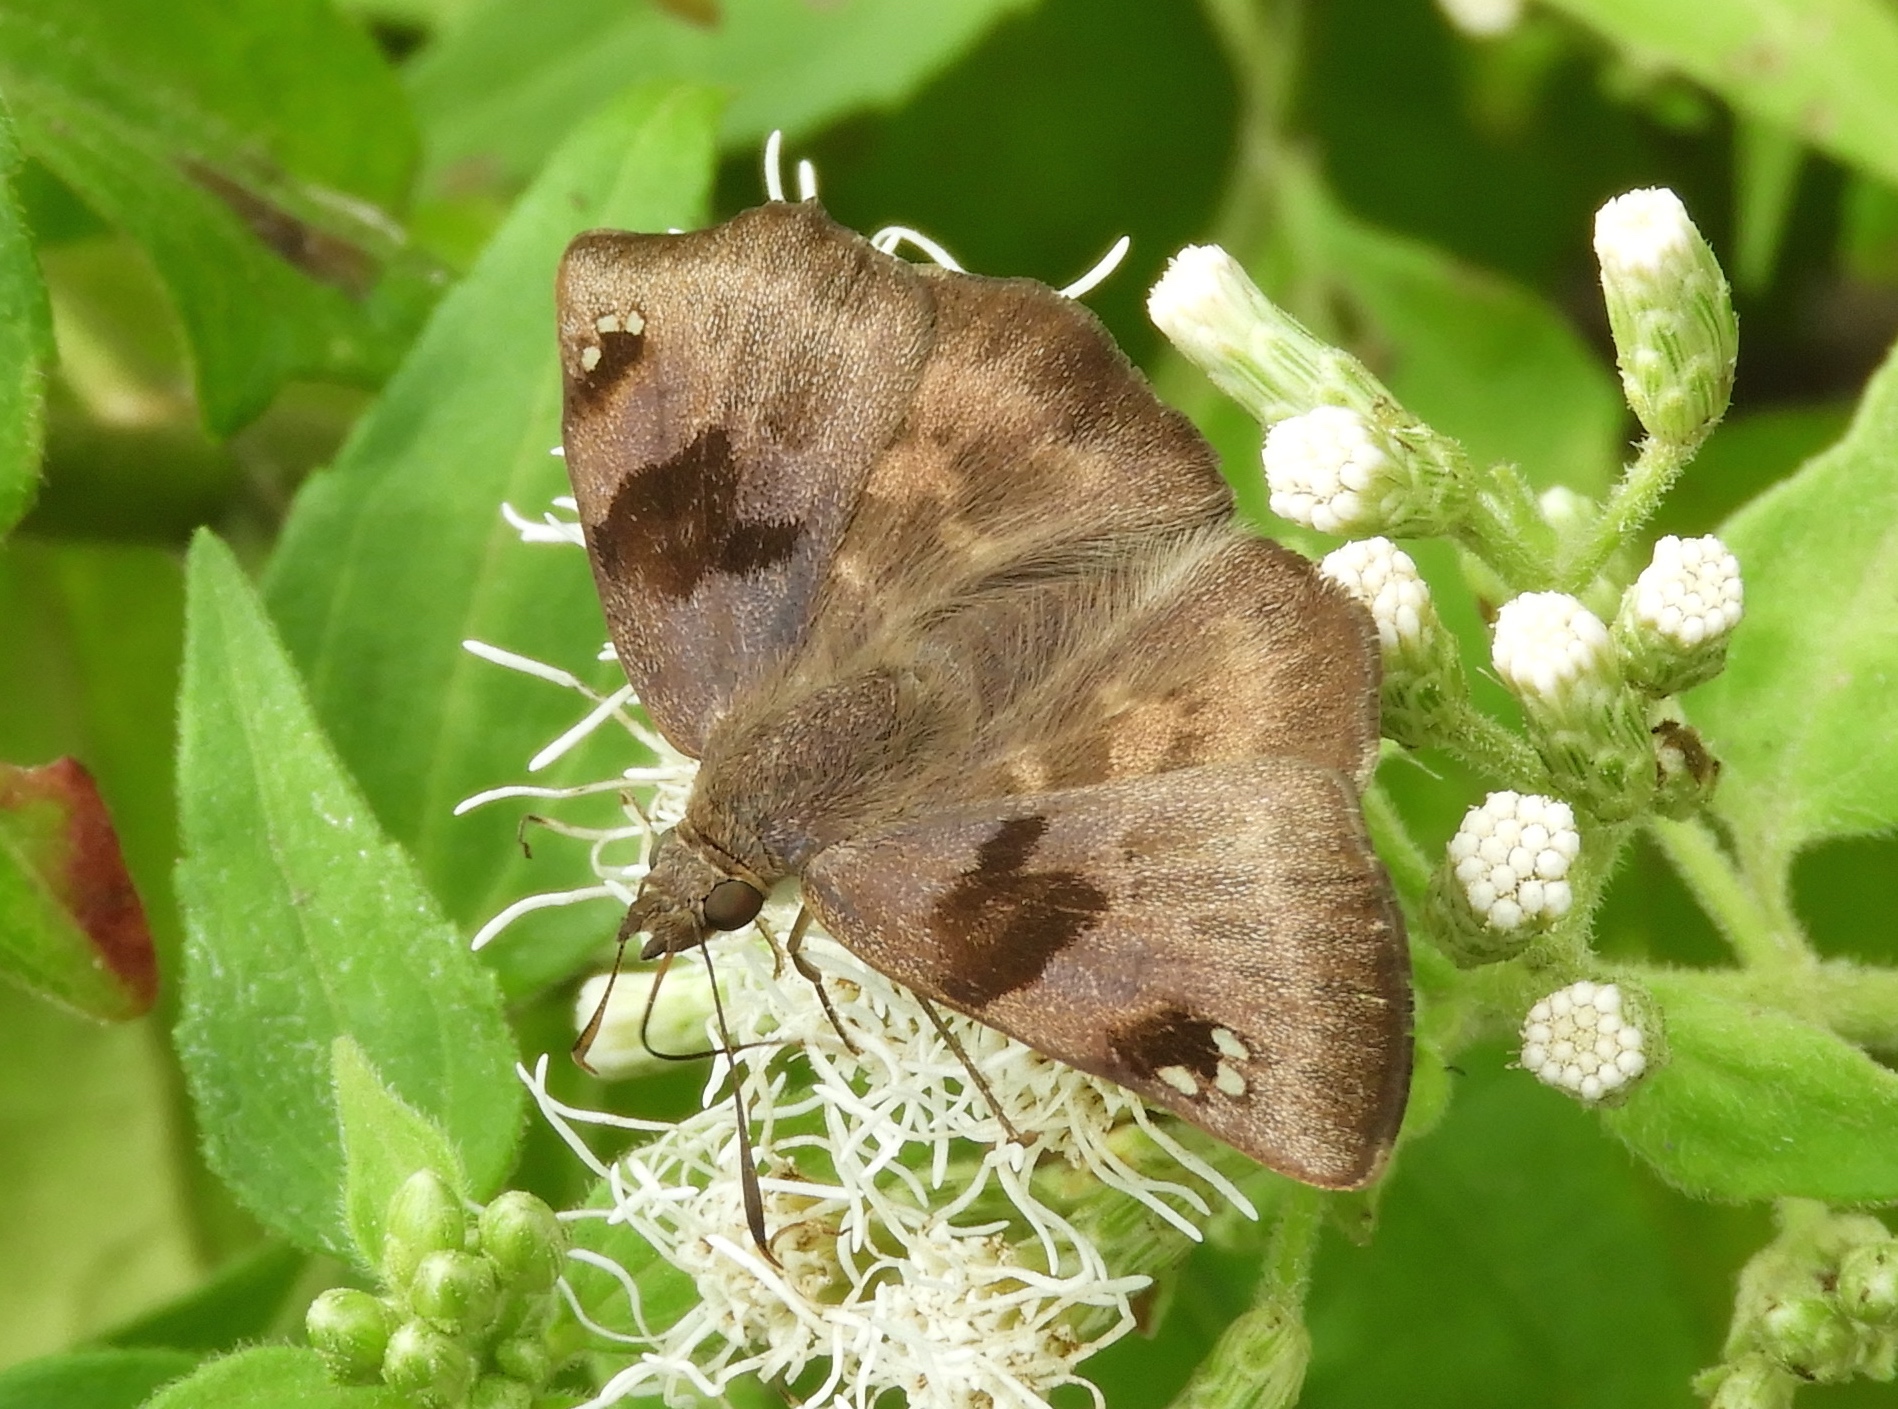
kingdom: Animalia
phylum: Arthropoda
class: Insecta
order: Lepidoptera
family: Hesperiidae
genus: Arteurotia
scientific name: Arteurotia tractipennis
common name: Starred skipper
